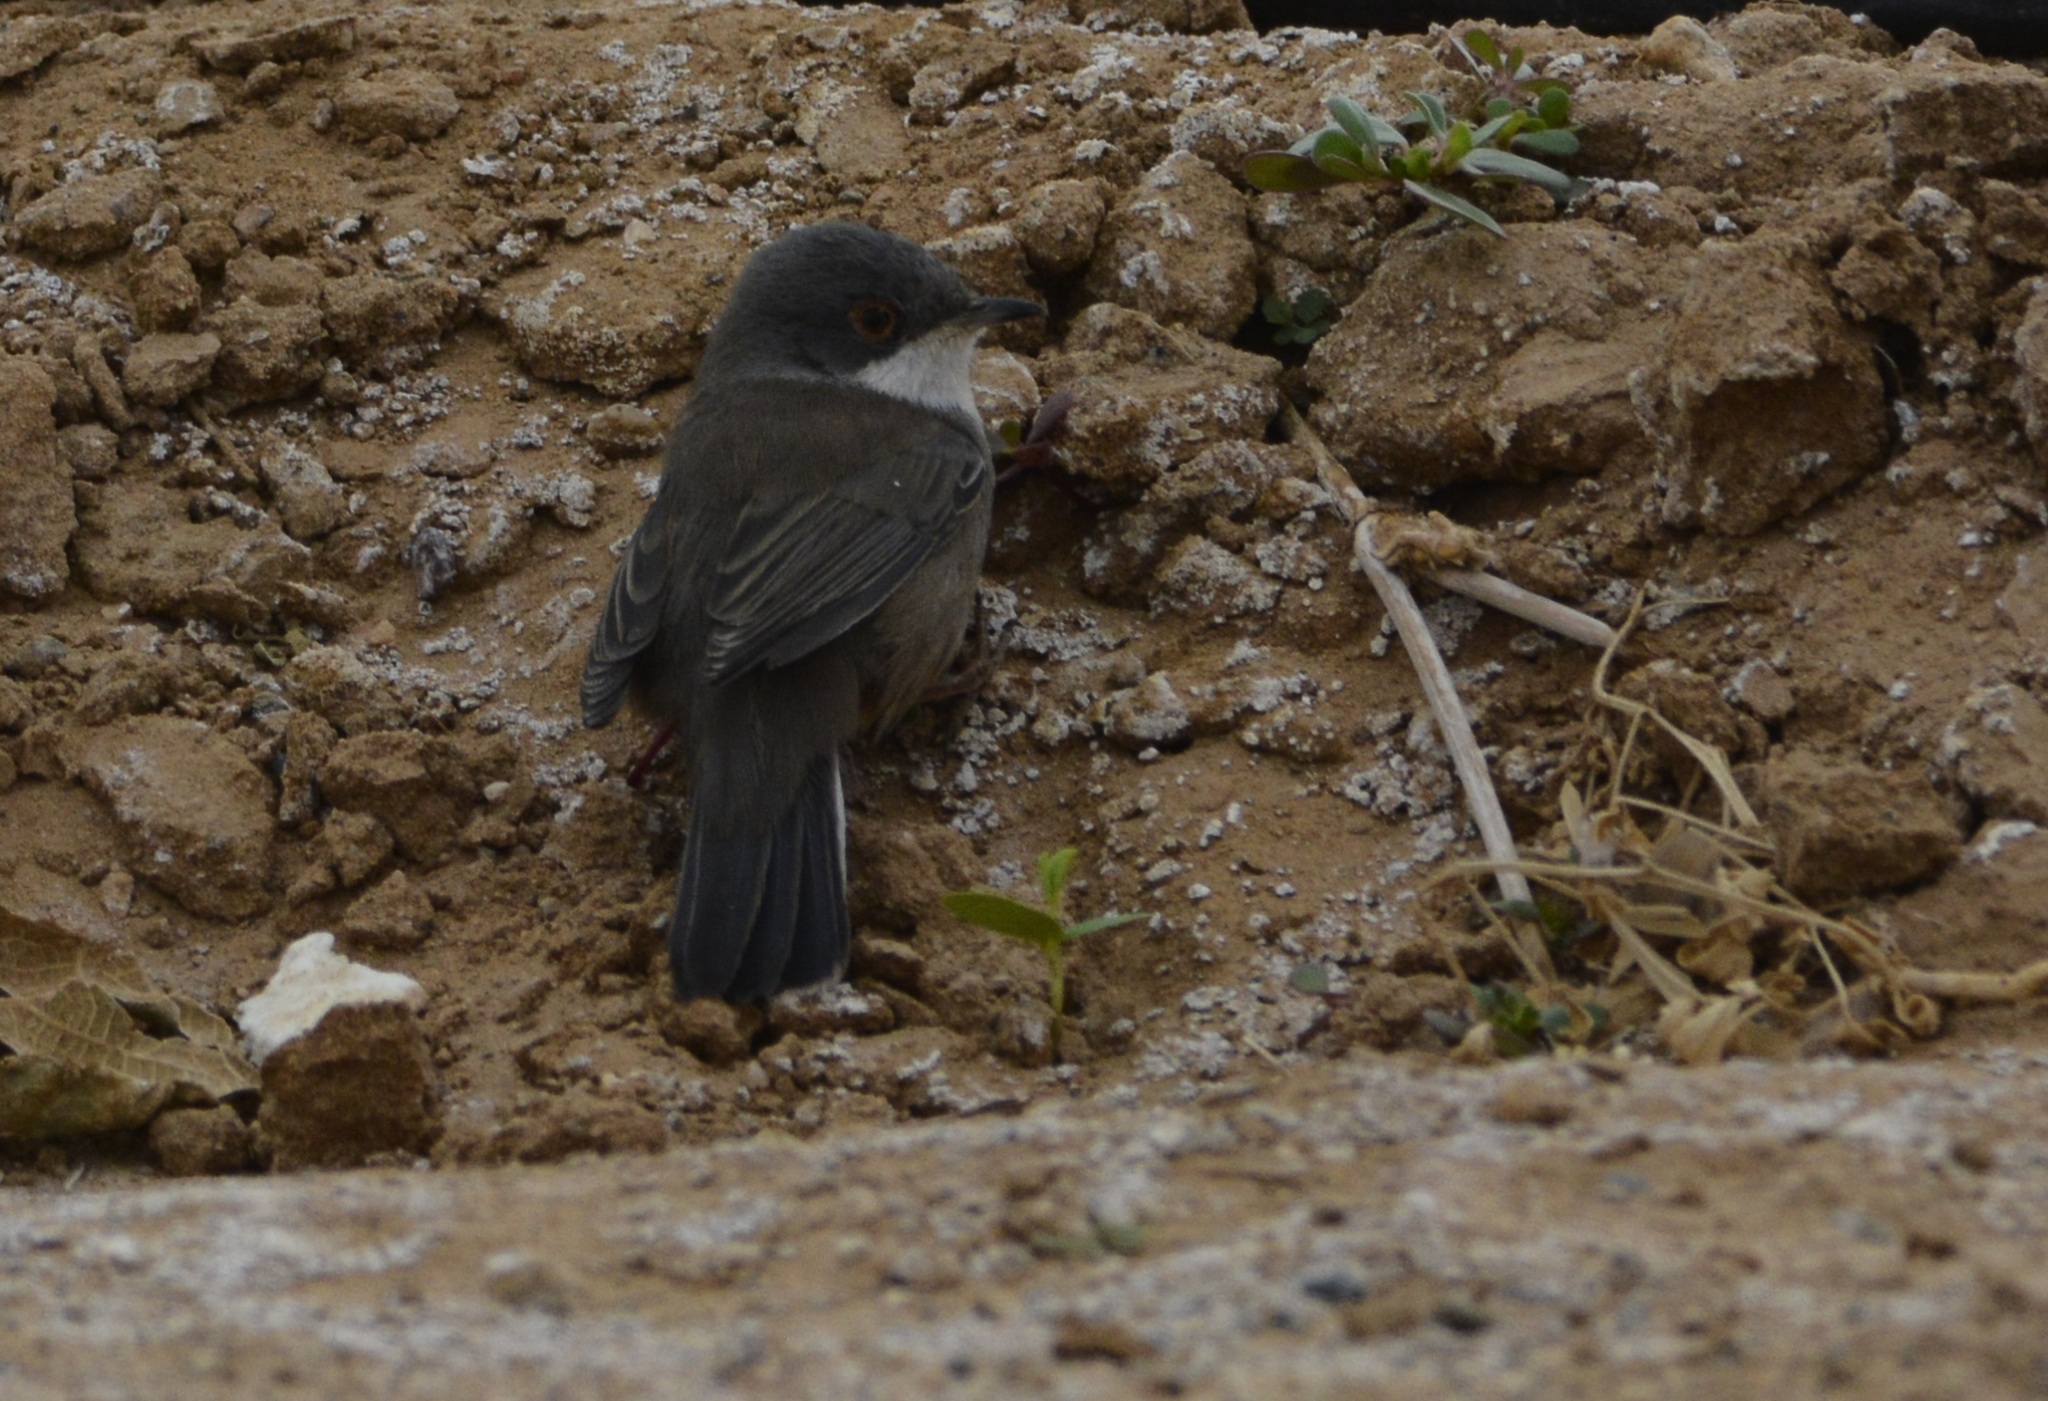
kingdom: Animalia
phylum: Chordata
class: Aves
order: Passeriformes
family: Sylviidae
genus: Curruca
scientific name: Curruca melanocephala
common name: Sardinian warbler
